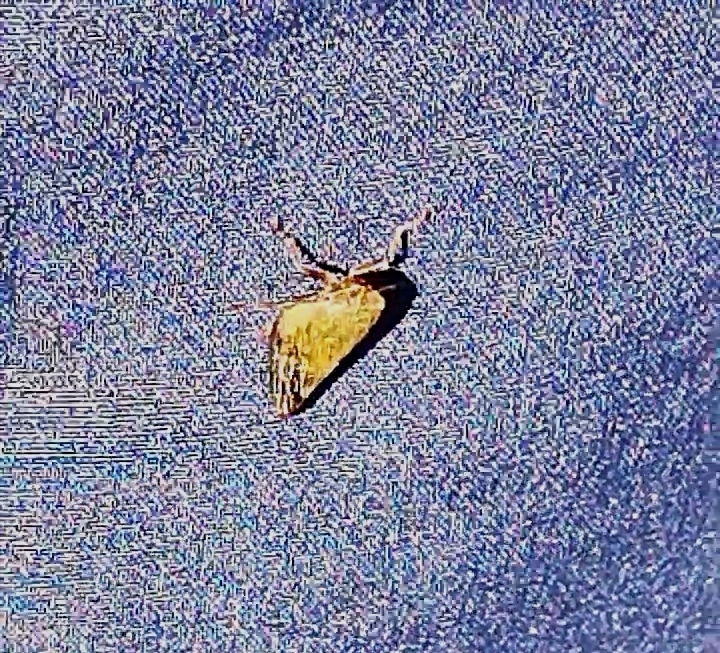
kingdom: Animalia
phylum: Arthropoda
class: Insecta
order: Hemiptera
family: Aphrophoridae
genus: Omalophora
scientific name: Omalophora pectoralis
